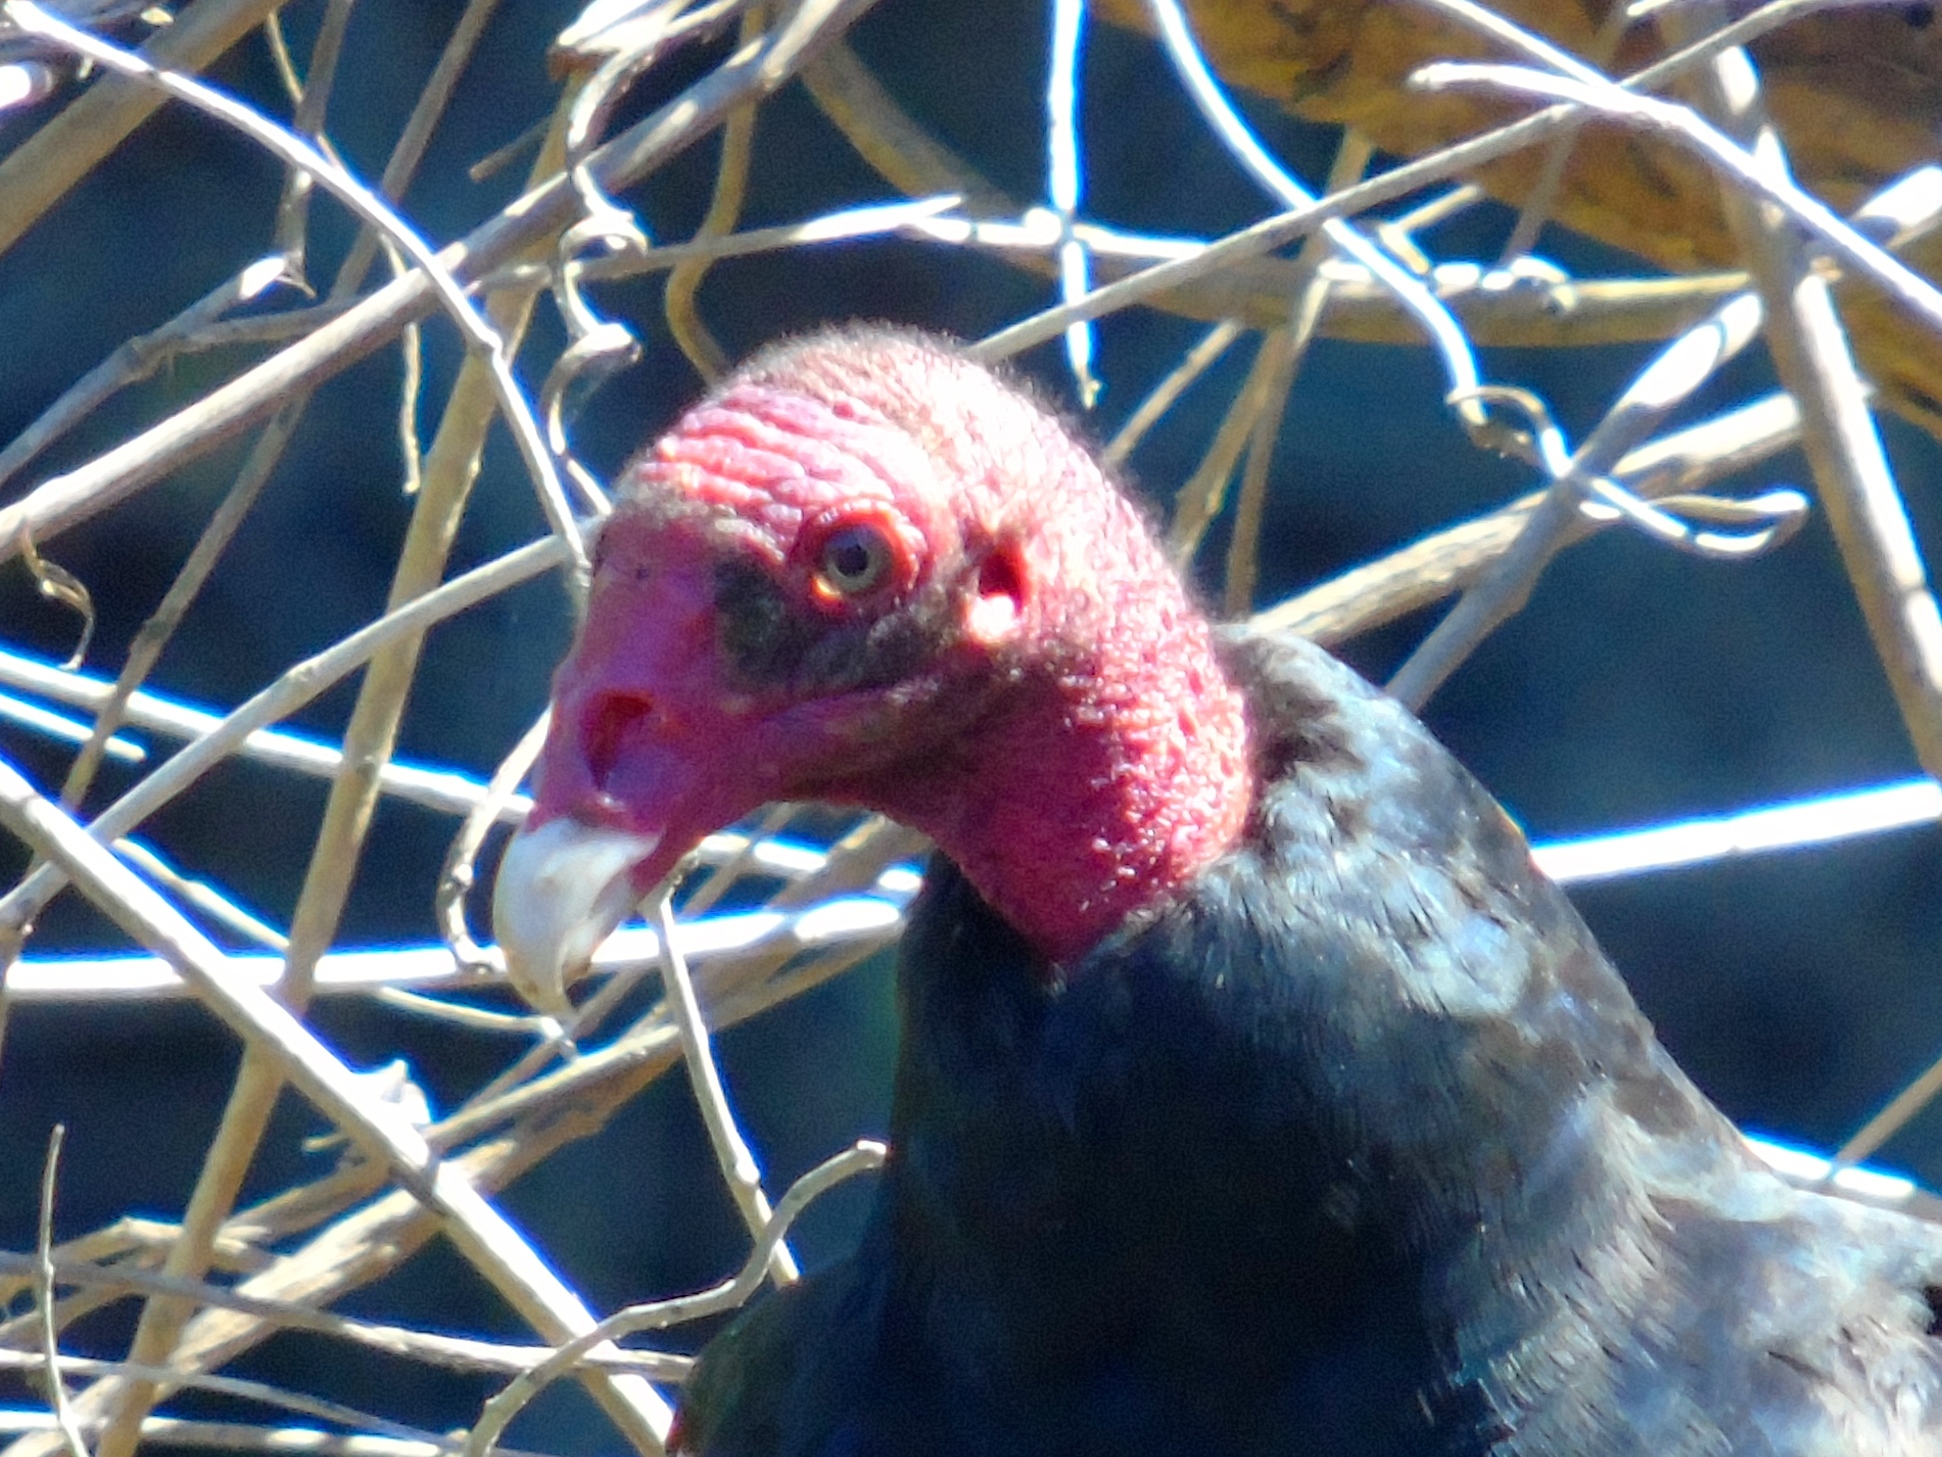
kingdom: Animalia
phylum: Chordata
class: Aves
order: Accipitriformes
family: Cathartidae
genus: Cathartes
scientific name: Cathartes aura
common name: Turkey vulture
